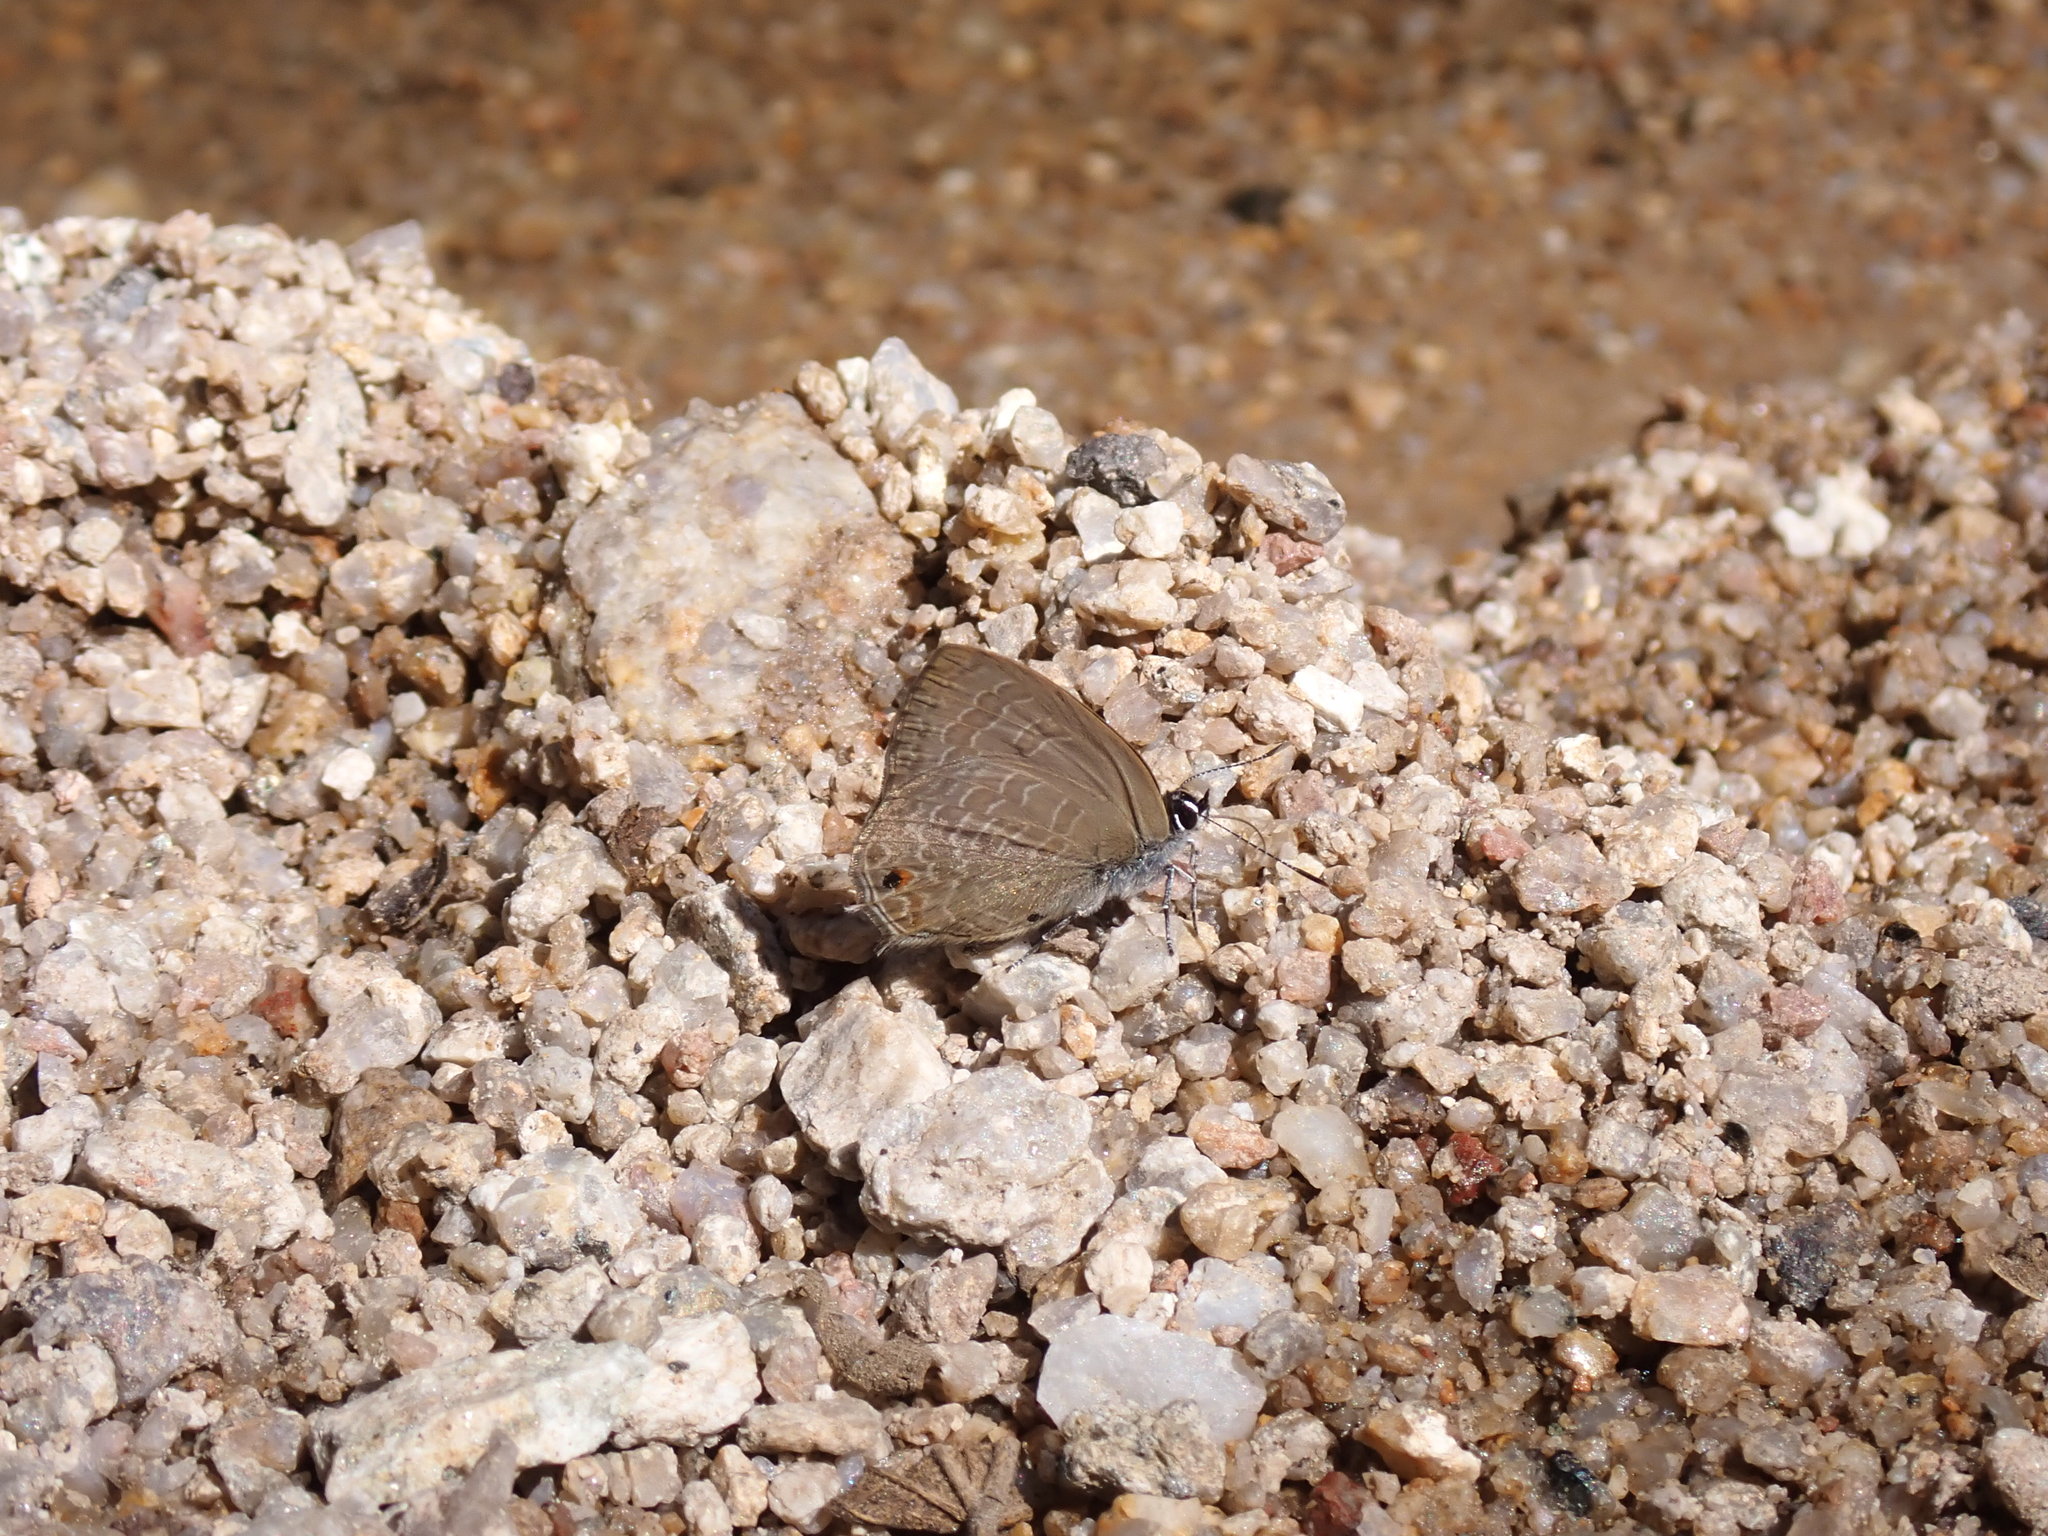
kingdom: Animalia
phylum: Arthropoda
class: Insecta
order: Lepidoptera
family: Lycaenidae
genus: Anthene
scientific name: Anthene emolus
